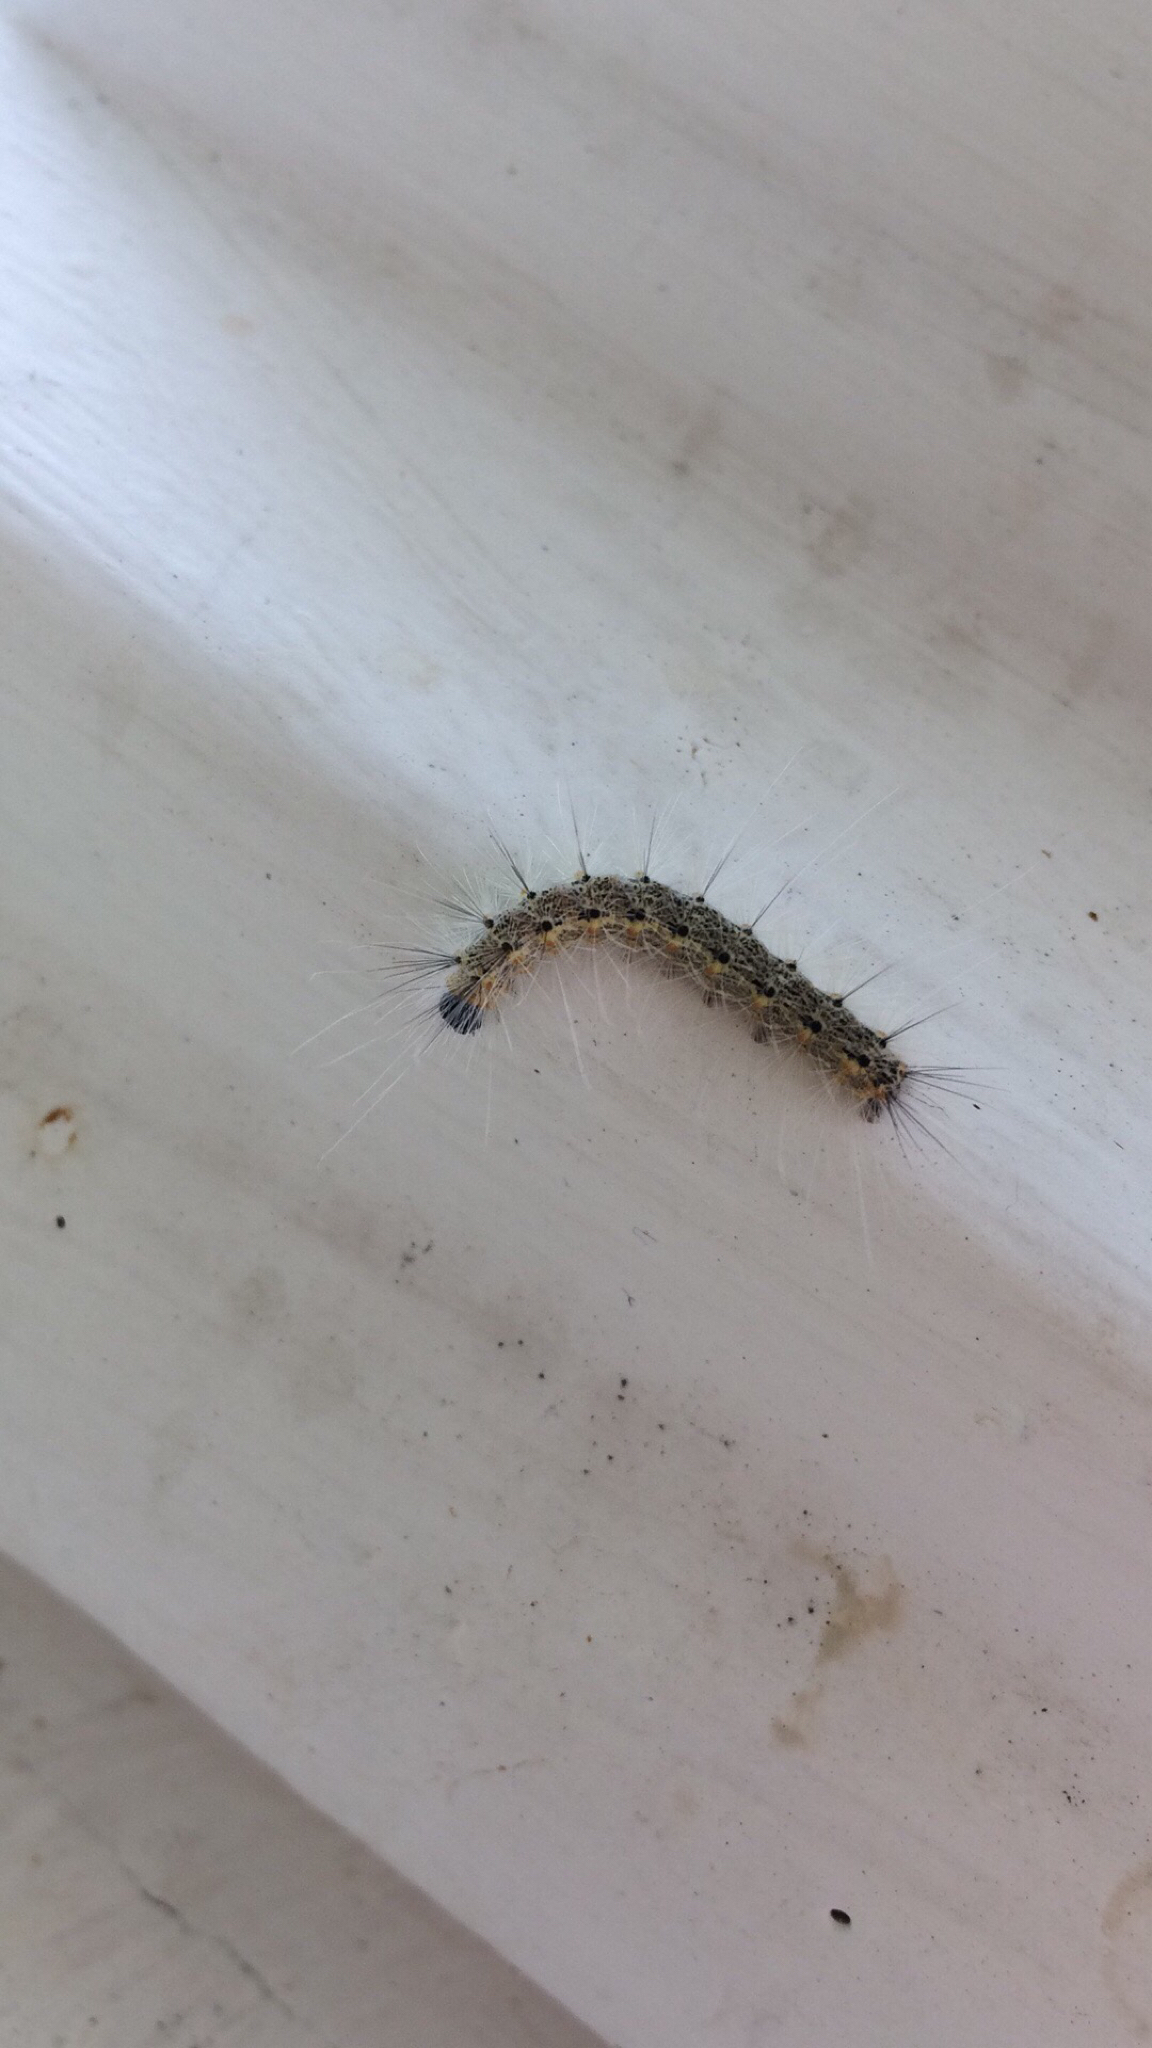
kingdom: Animalia
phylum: Arthropoda
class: Insecta
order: Lepidoptera
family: Erebidae
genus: Hyphantria
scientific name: Hyphantria cunea
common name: American white moth
